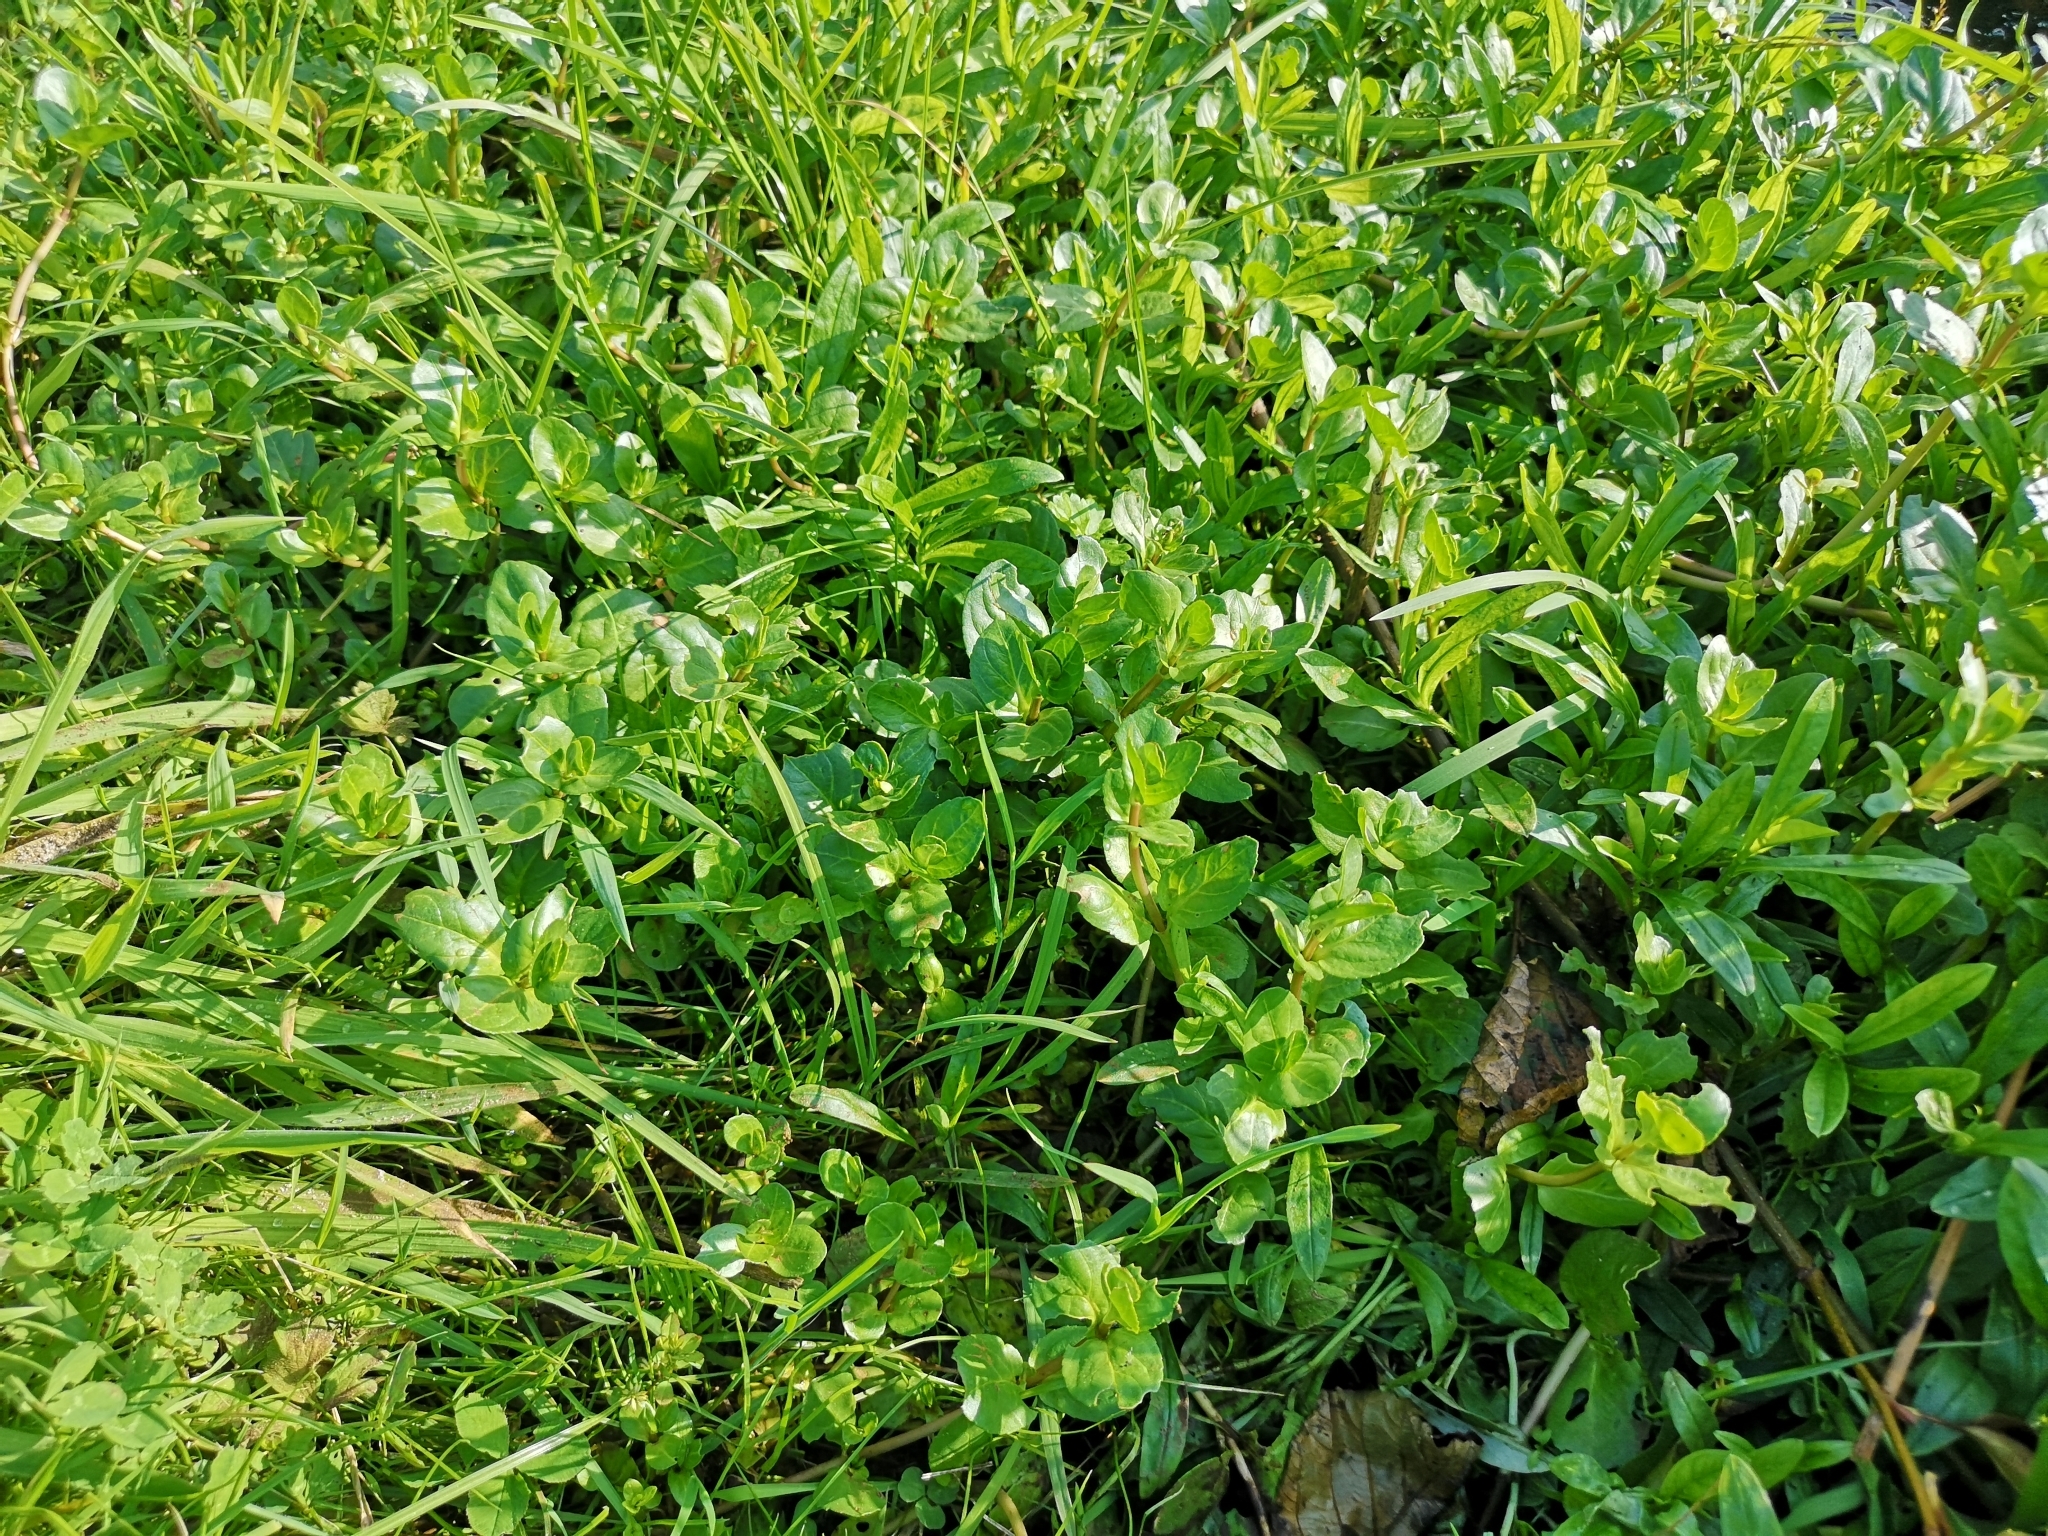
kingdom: Plantae
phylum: Tracheophyta
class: Magnoliopsida
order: Lamiales
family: Plantaginaceae
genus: Veronica
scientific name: Veronica beccabunga
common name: Brooklime
